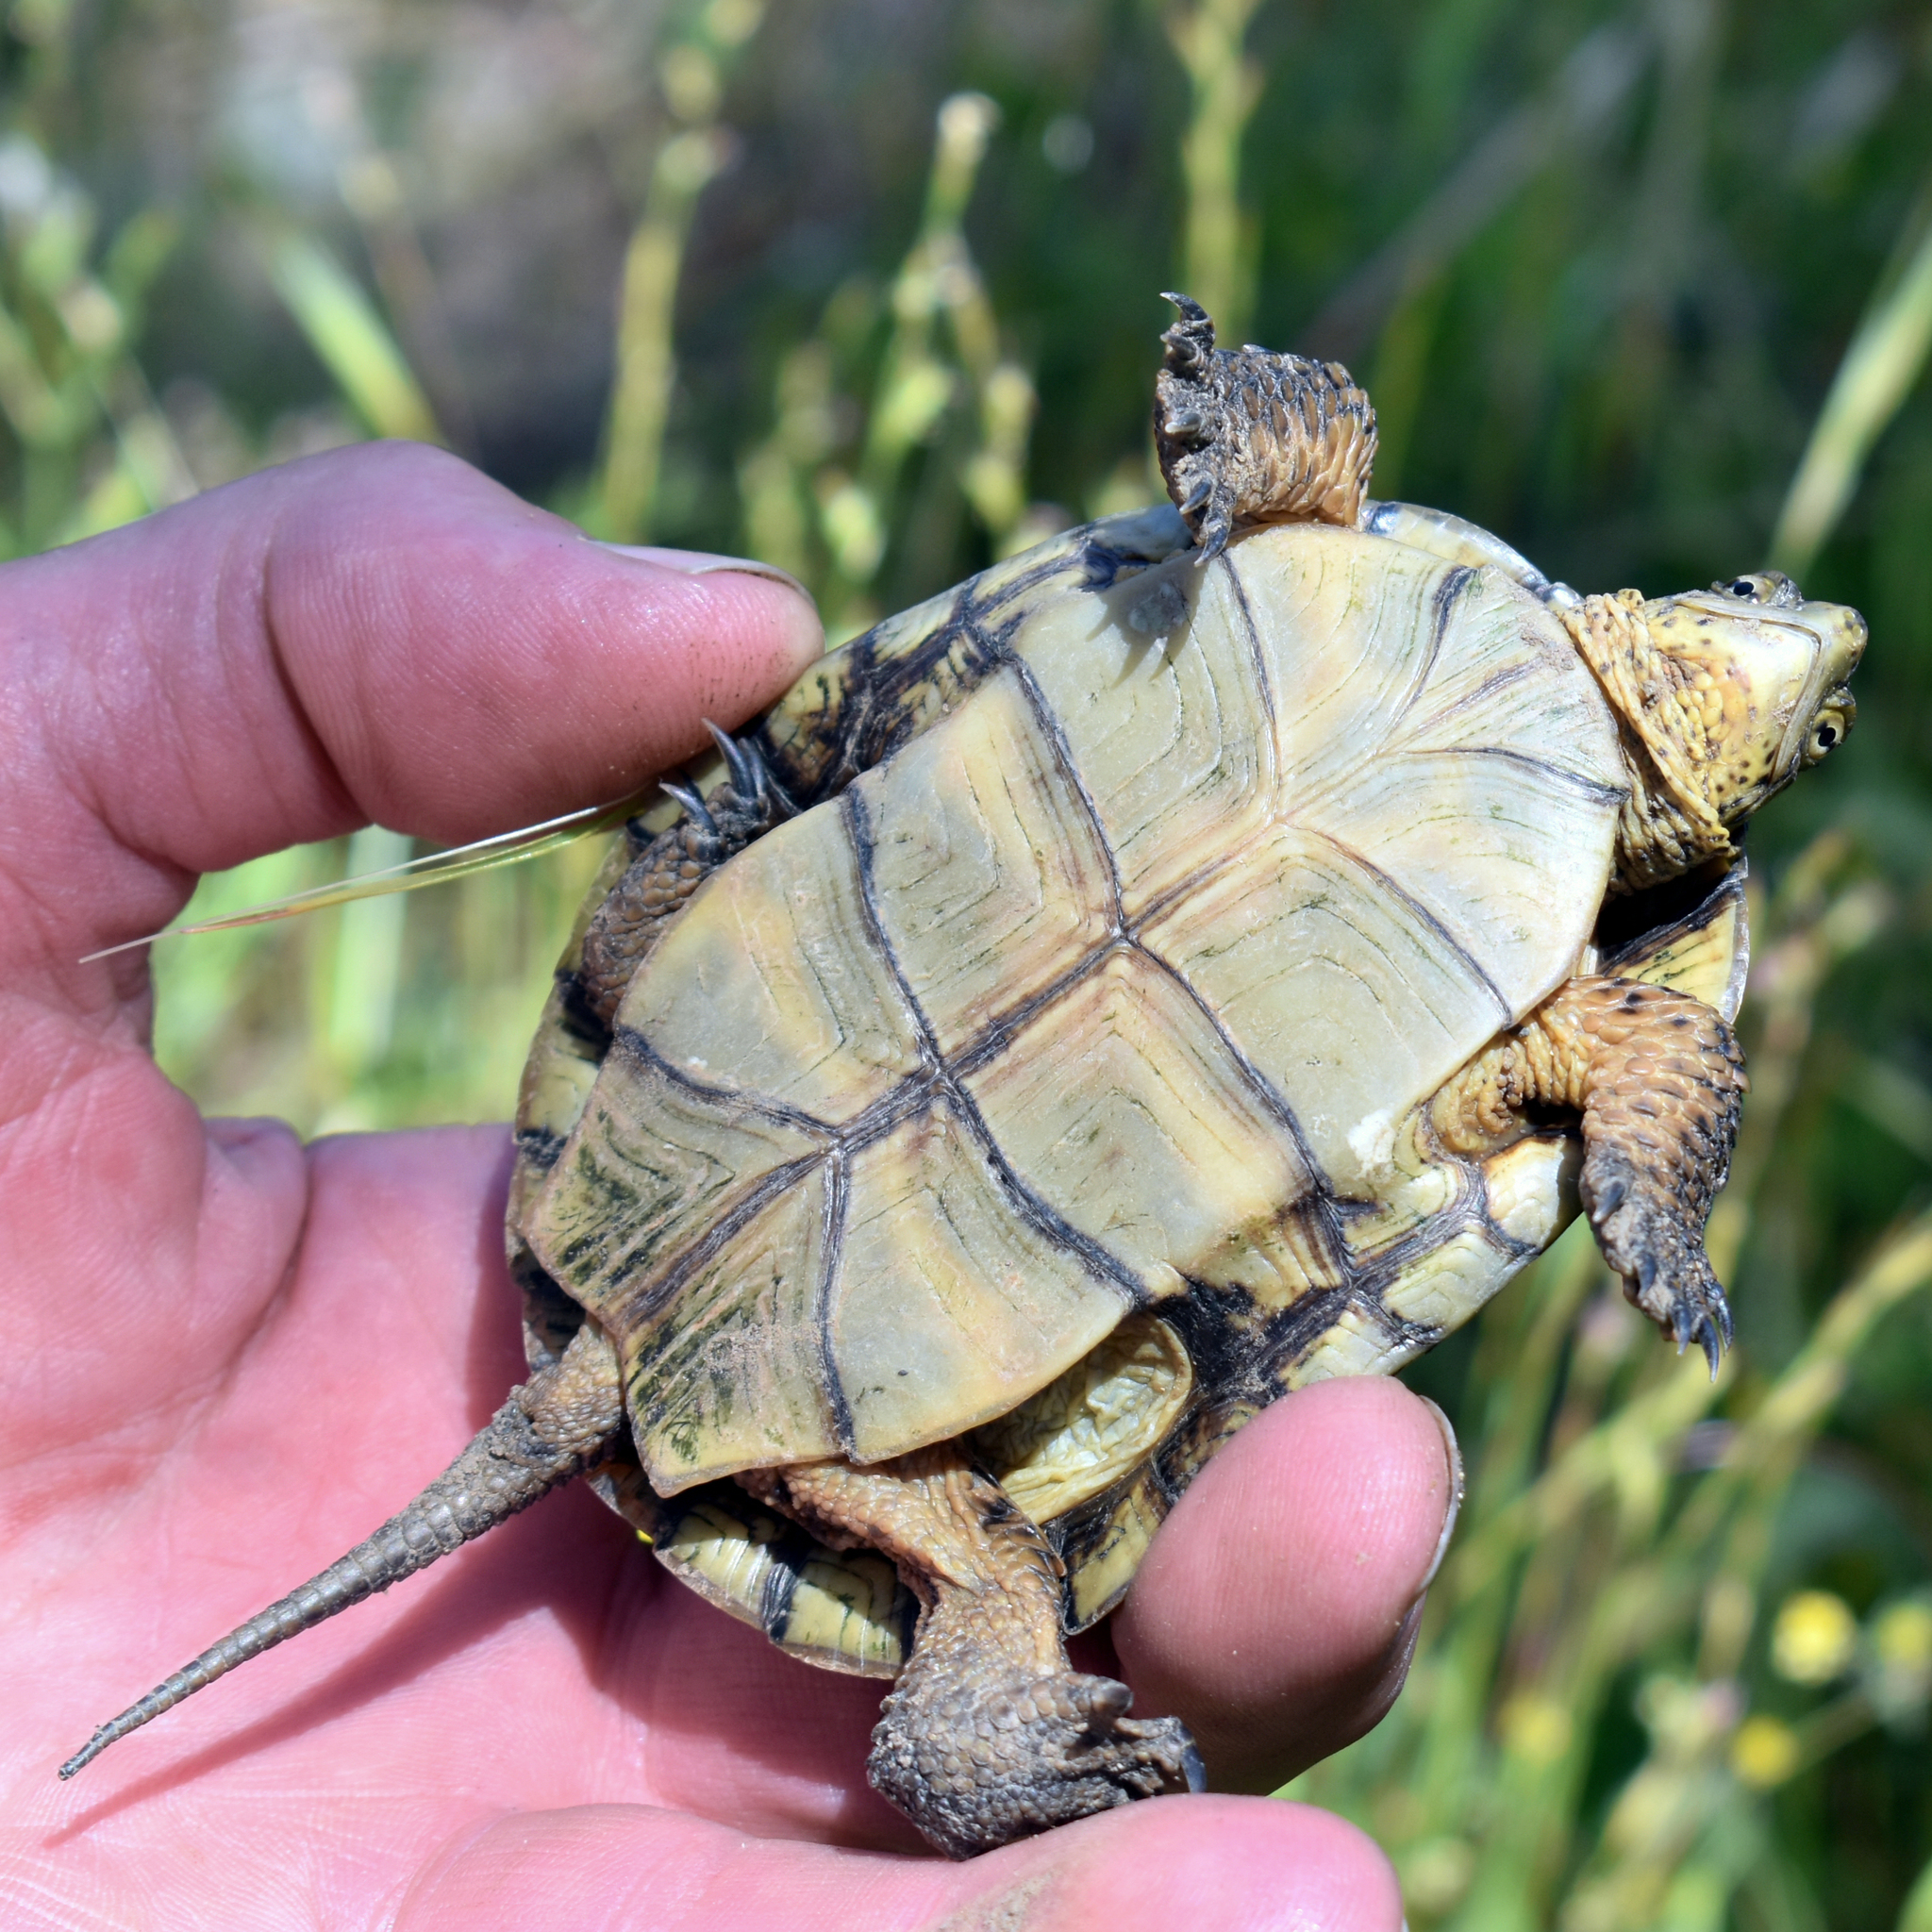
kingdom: Animalia
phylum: Chordata
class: Testudines
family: Emydidae
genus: Actinemys
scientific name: Actinemys marmorata
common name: Western pond turtle
